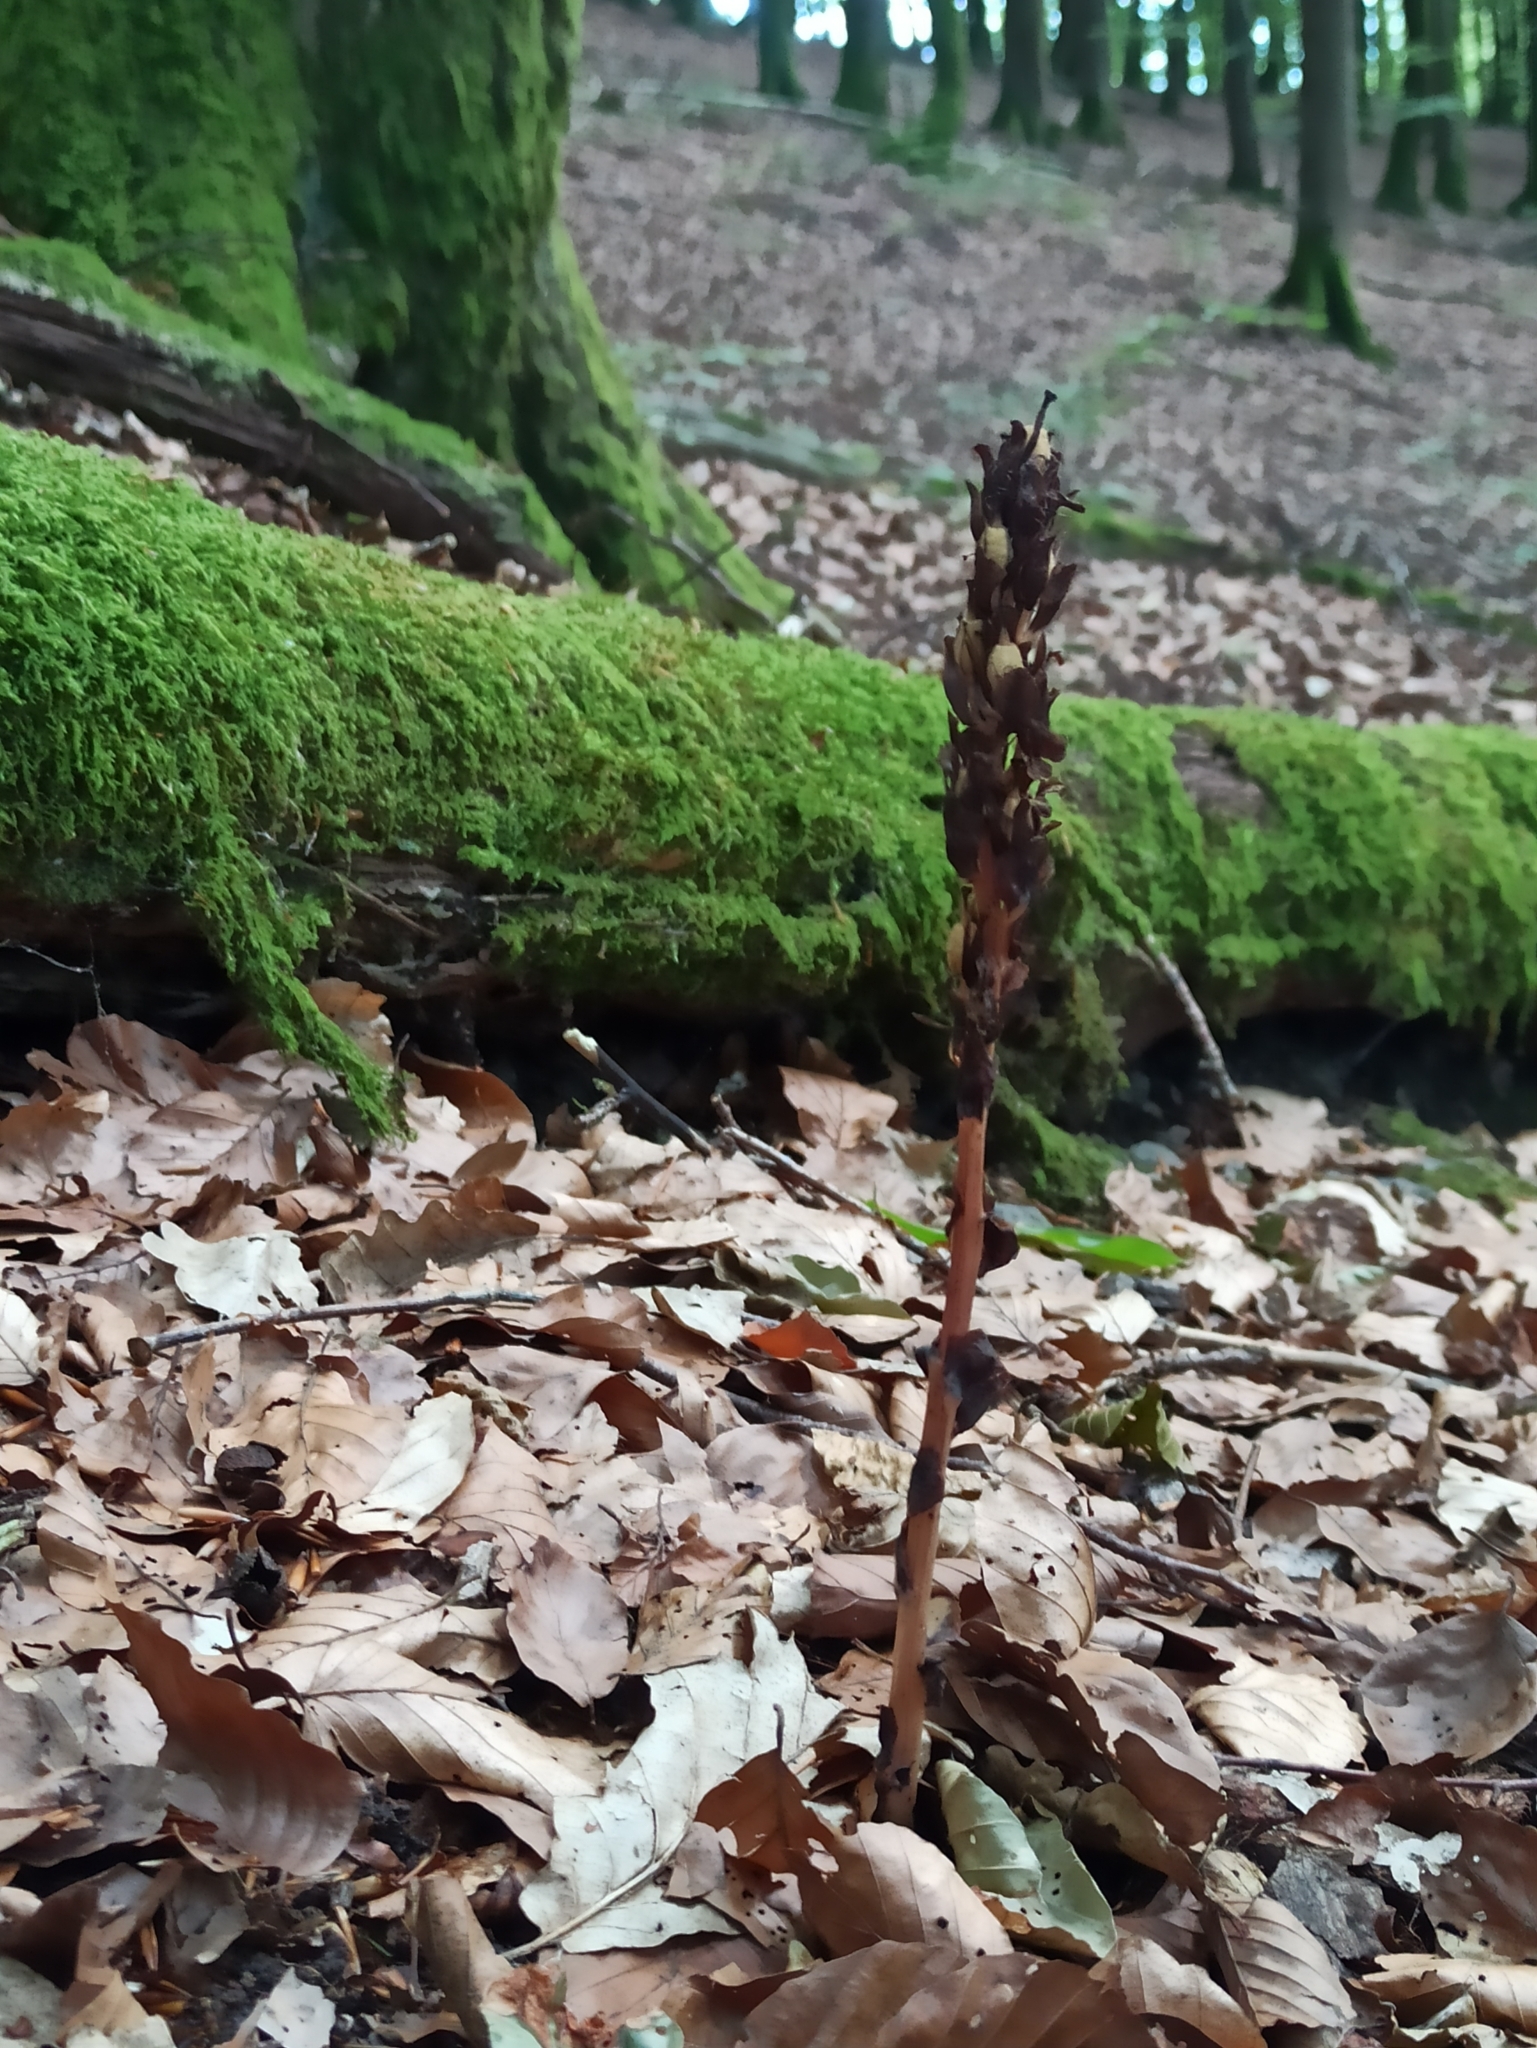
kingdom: Plantae
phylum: Tracheophyta
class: Magnoliopsida
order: Ericales
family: Ericaceae
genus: Hypopitys
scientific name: Hypopitys monotropa
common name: Yellow bird's-nest
